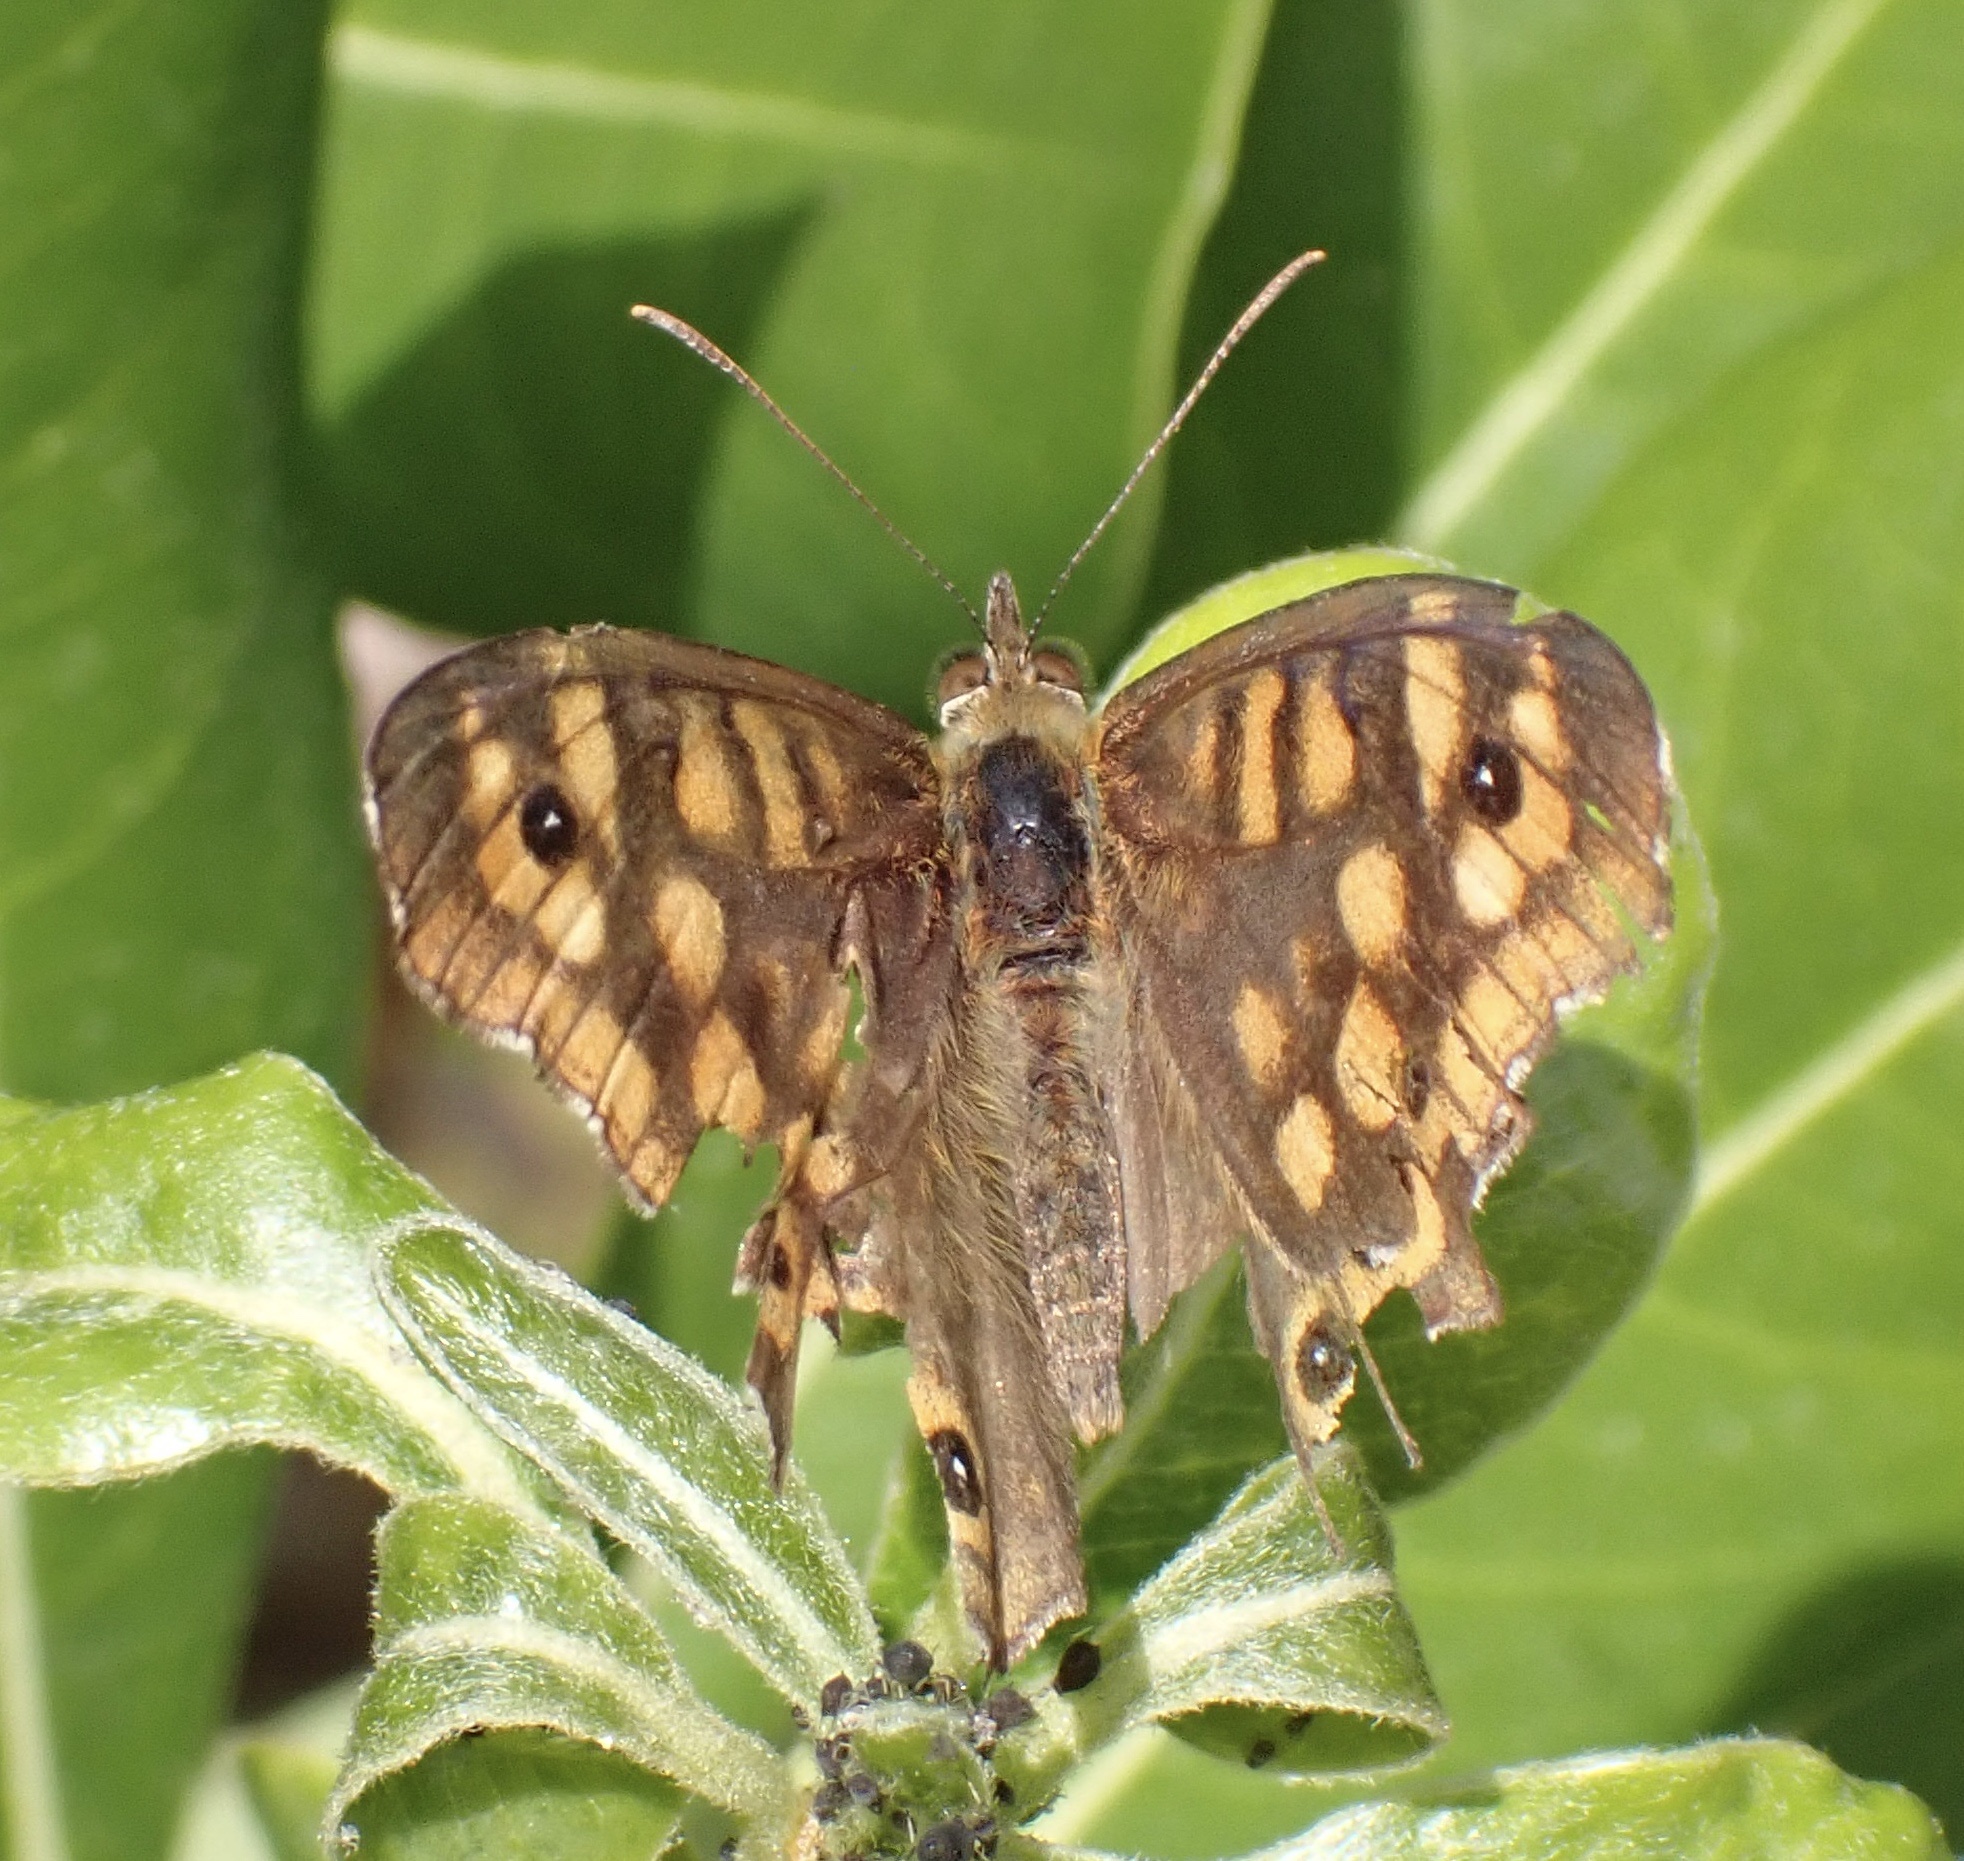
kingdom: Animalia
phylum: Arthropoda
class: Insecta
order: Lepidoptera
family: Nymphalidae
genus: Pararge
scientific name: Pararge aegeria
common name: Speckled wood
